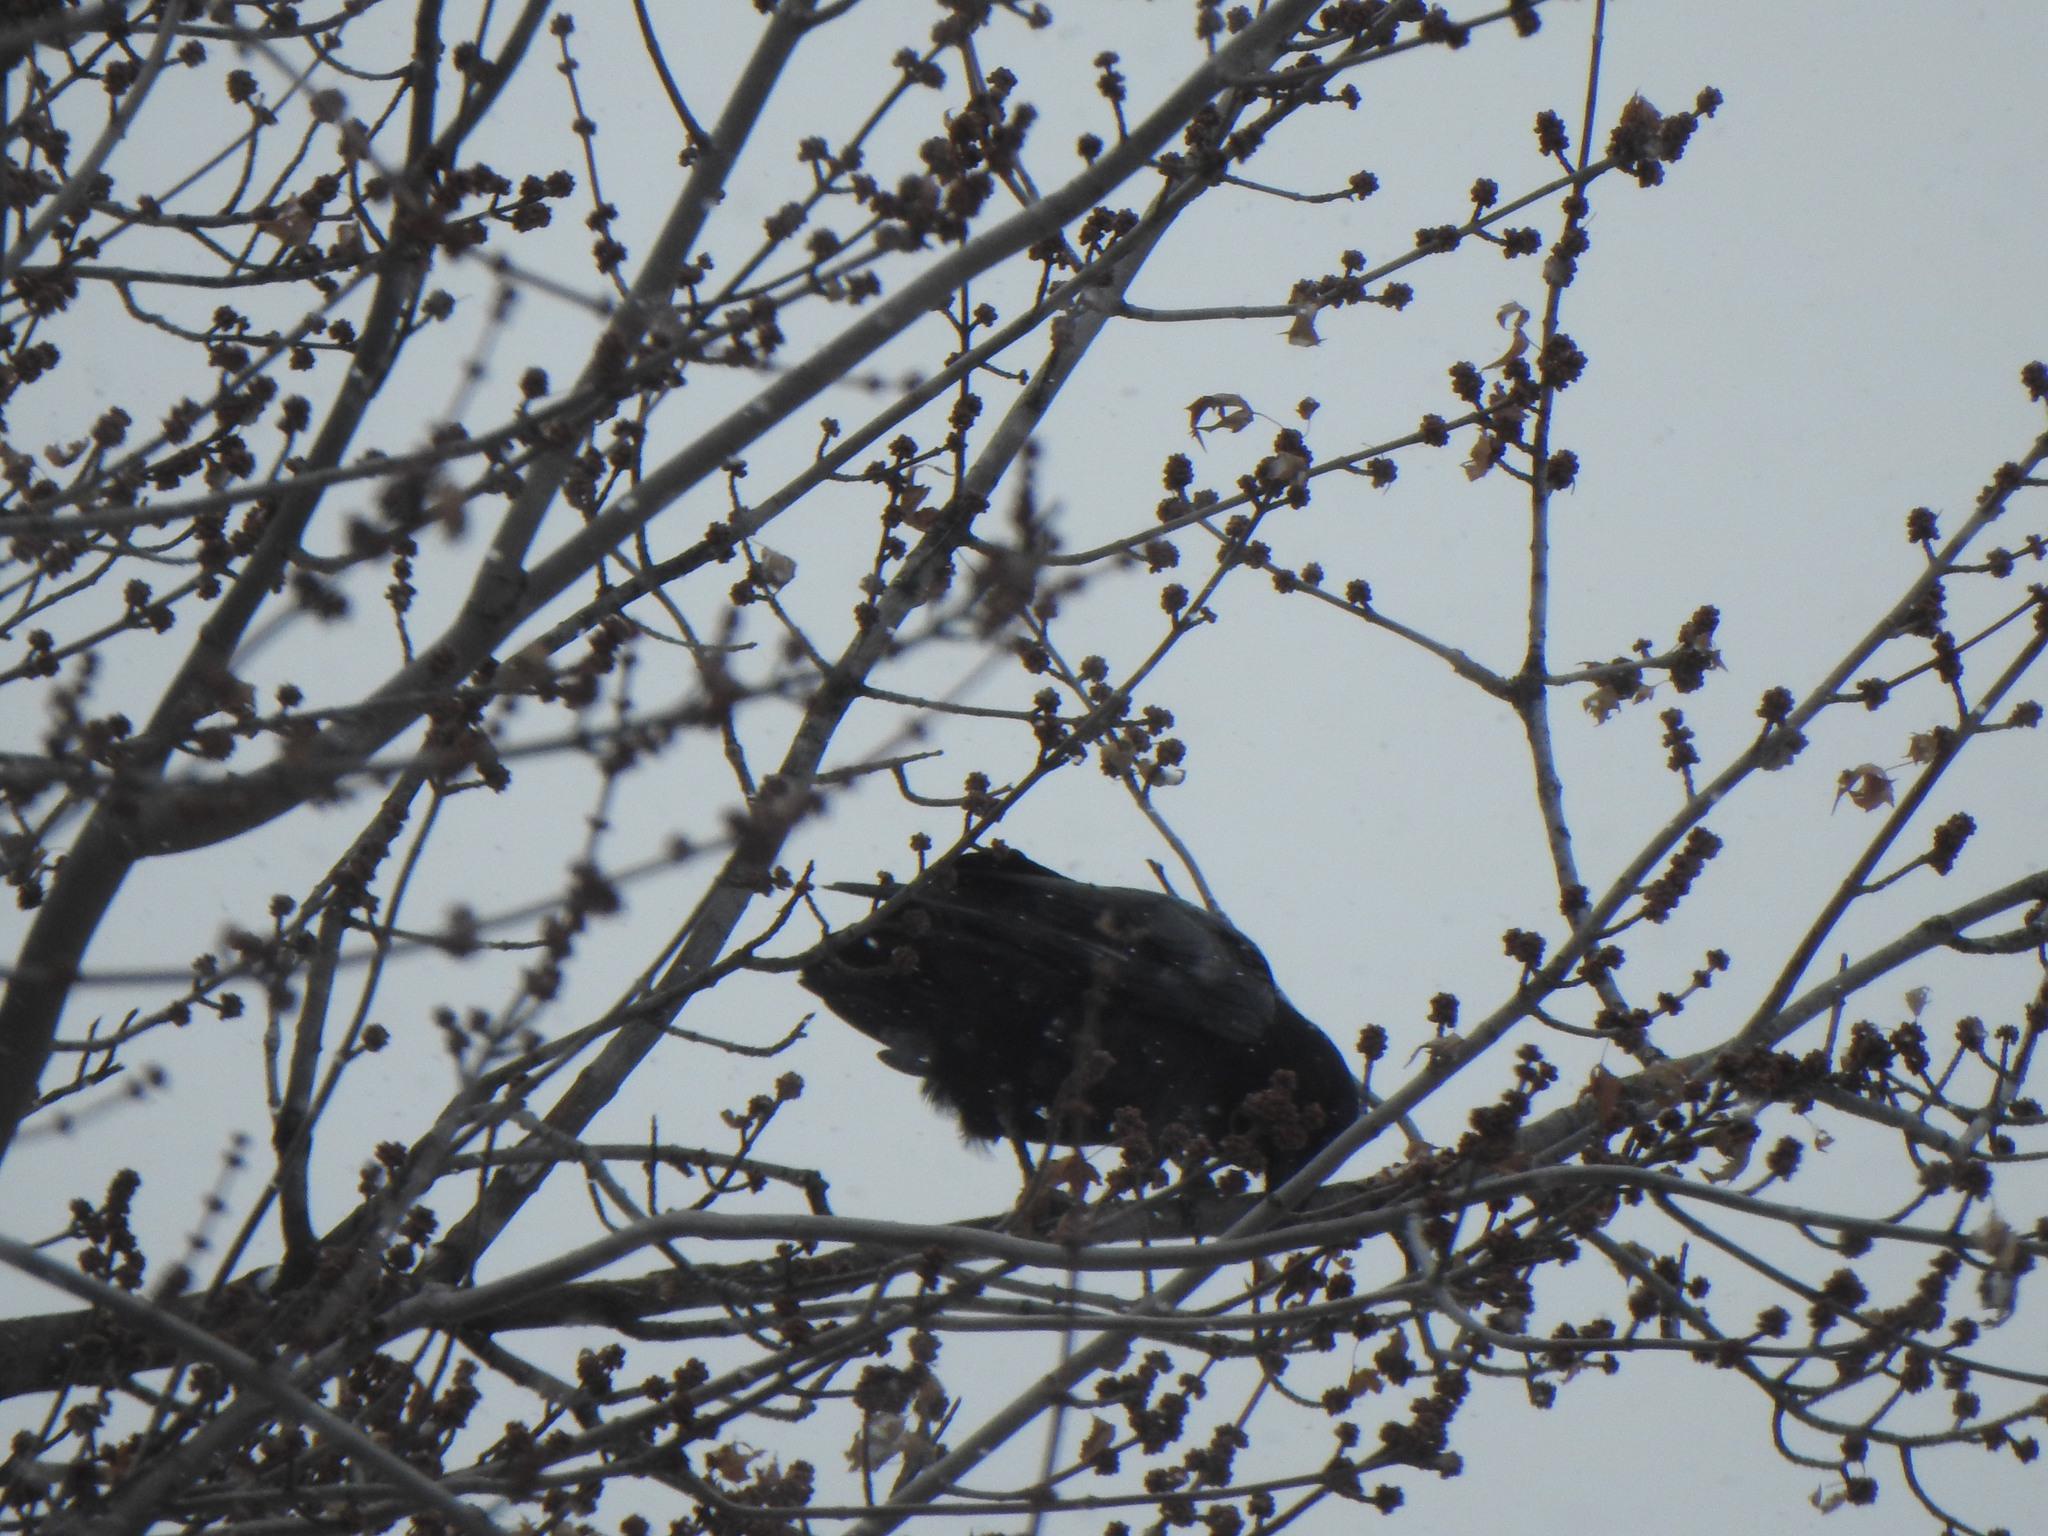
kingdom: Animalia
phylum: Chordata
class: Aves
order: Passeriformes
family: Corvidae
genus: Corvus
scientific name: Corvus brachyrhynchos
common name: American crow
